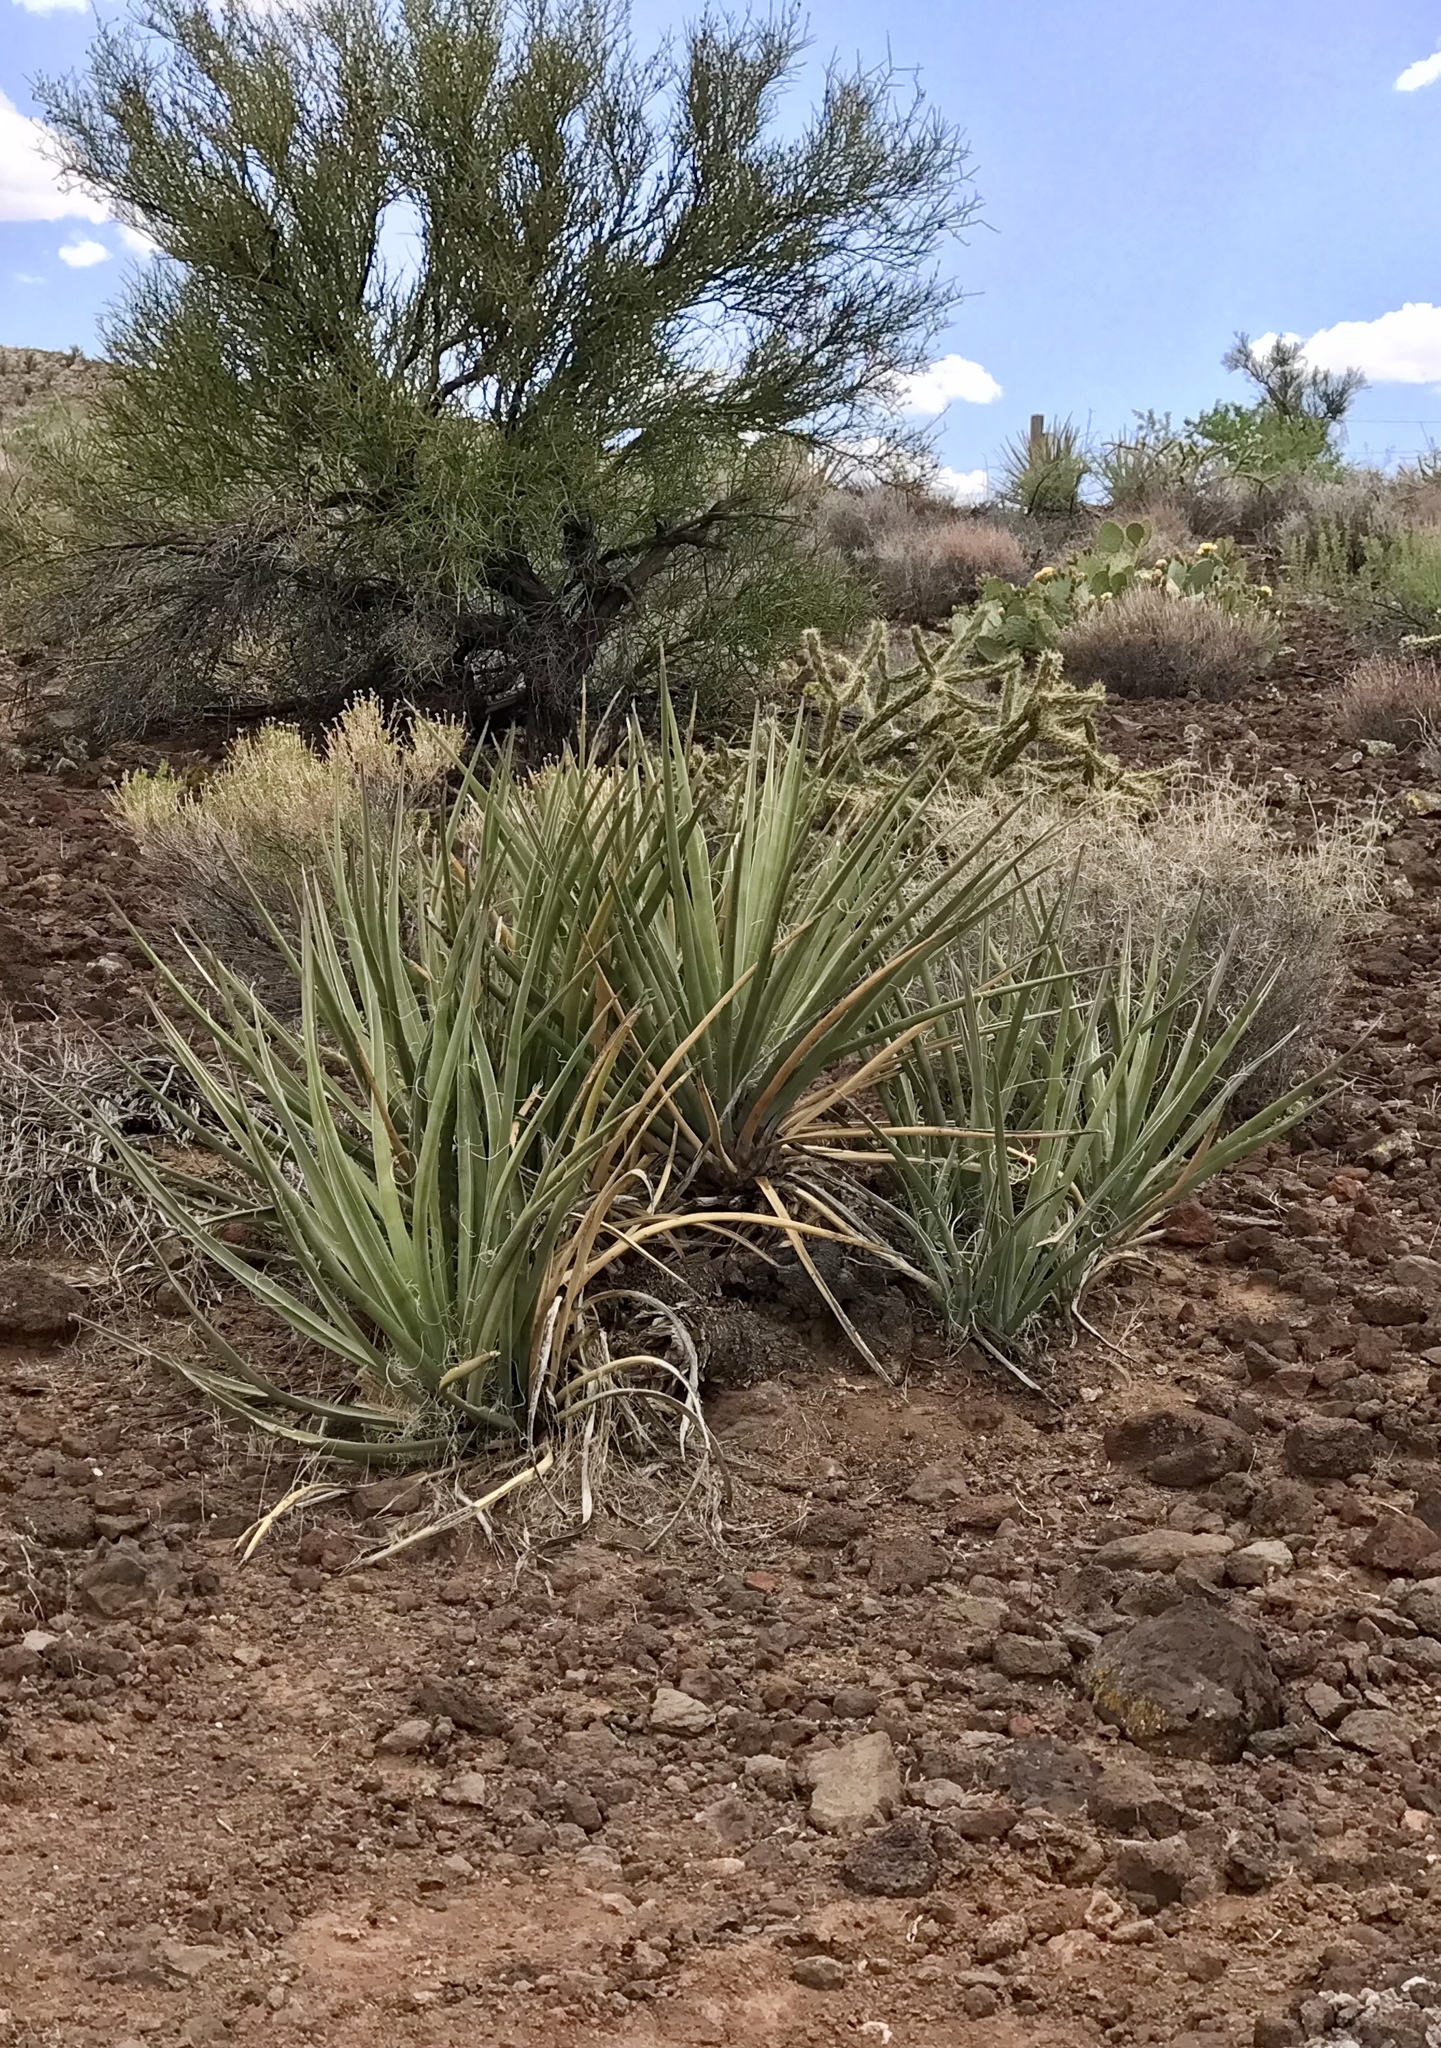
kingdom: Plantae
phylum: Tracheophyta
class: Liliopsida
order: Asparagales
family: Asparagaceae
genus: Yucca
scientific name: Yucca baccata
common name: Banana yucca
